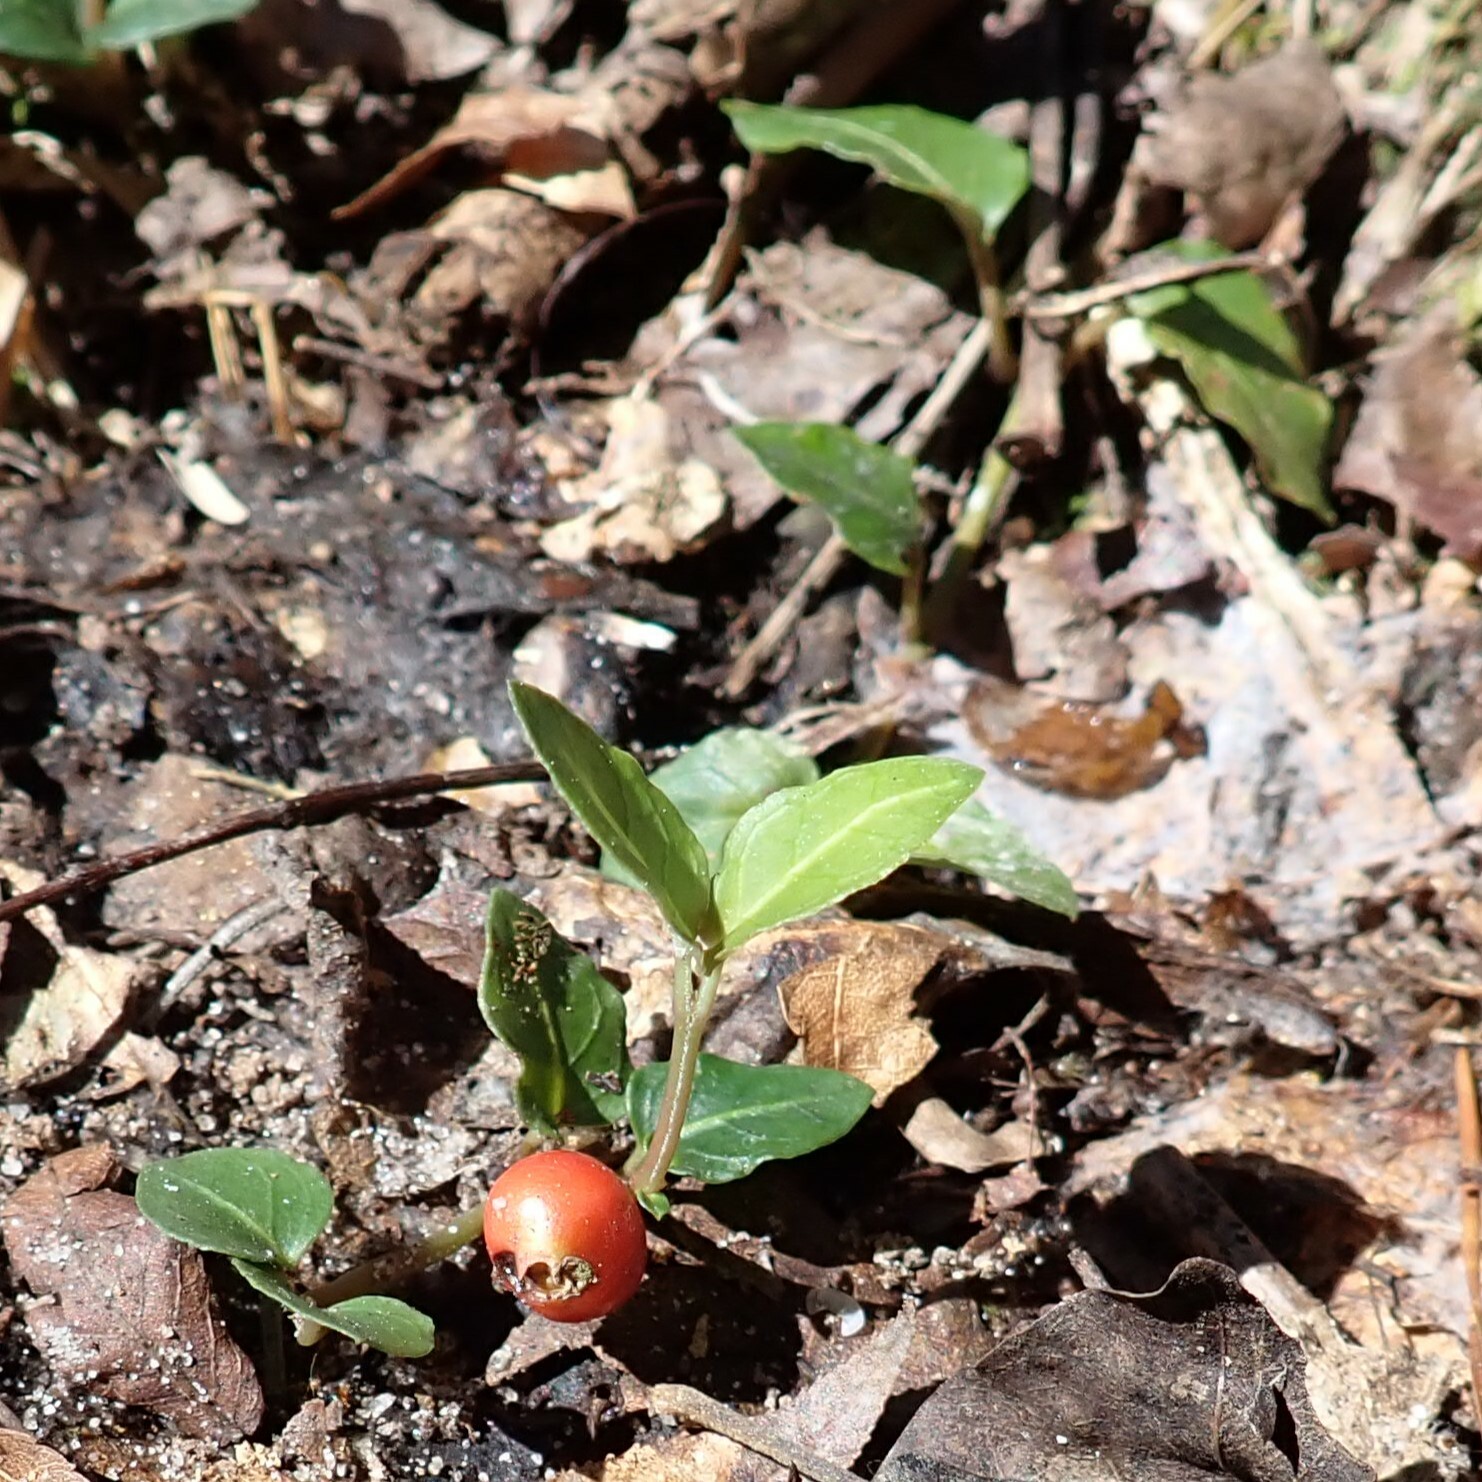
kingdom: Plantae
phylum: Tracheophyta
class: Magnoliopsida
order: Gentianales
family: Rubiaceae
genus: Mitchella
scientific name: Mitchella repens
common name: Partridge-berry
